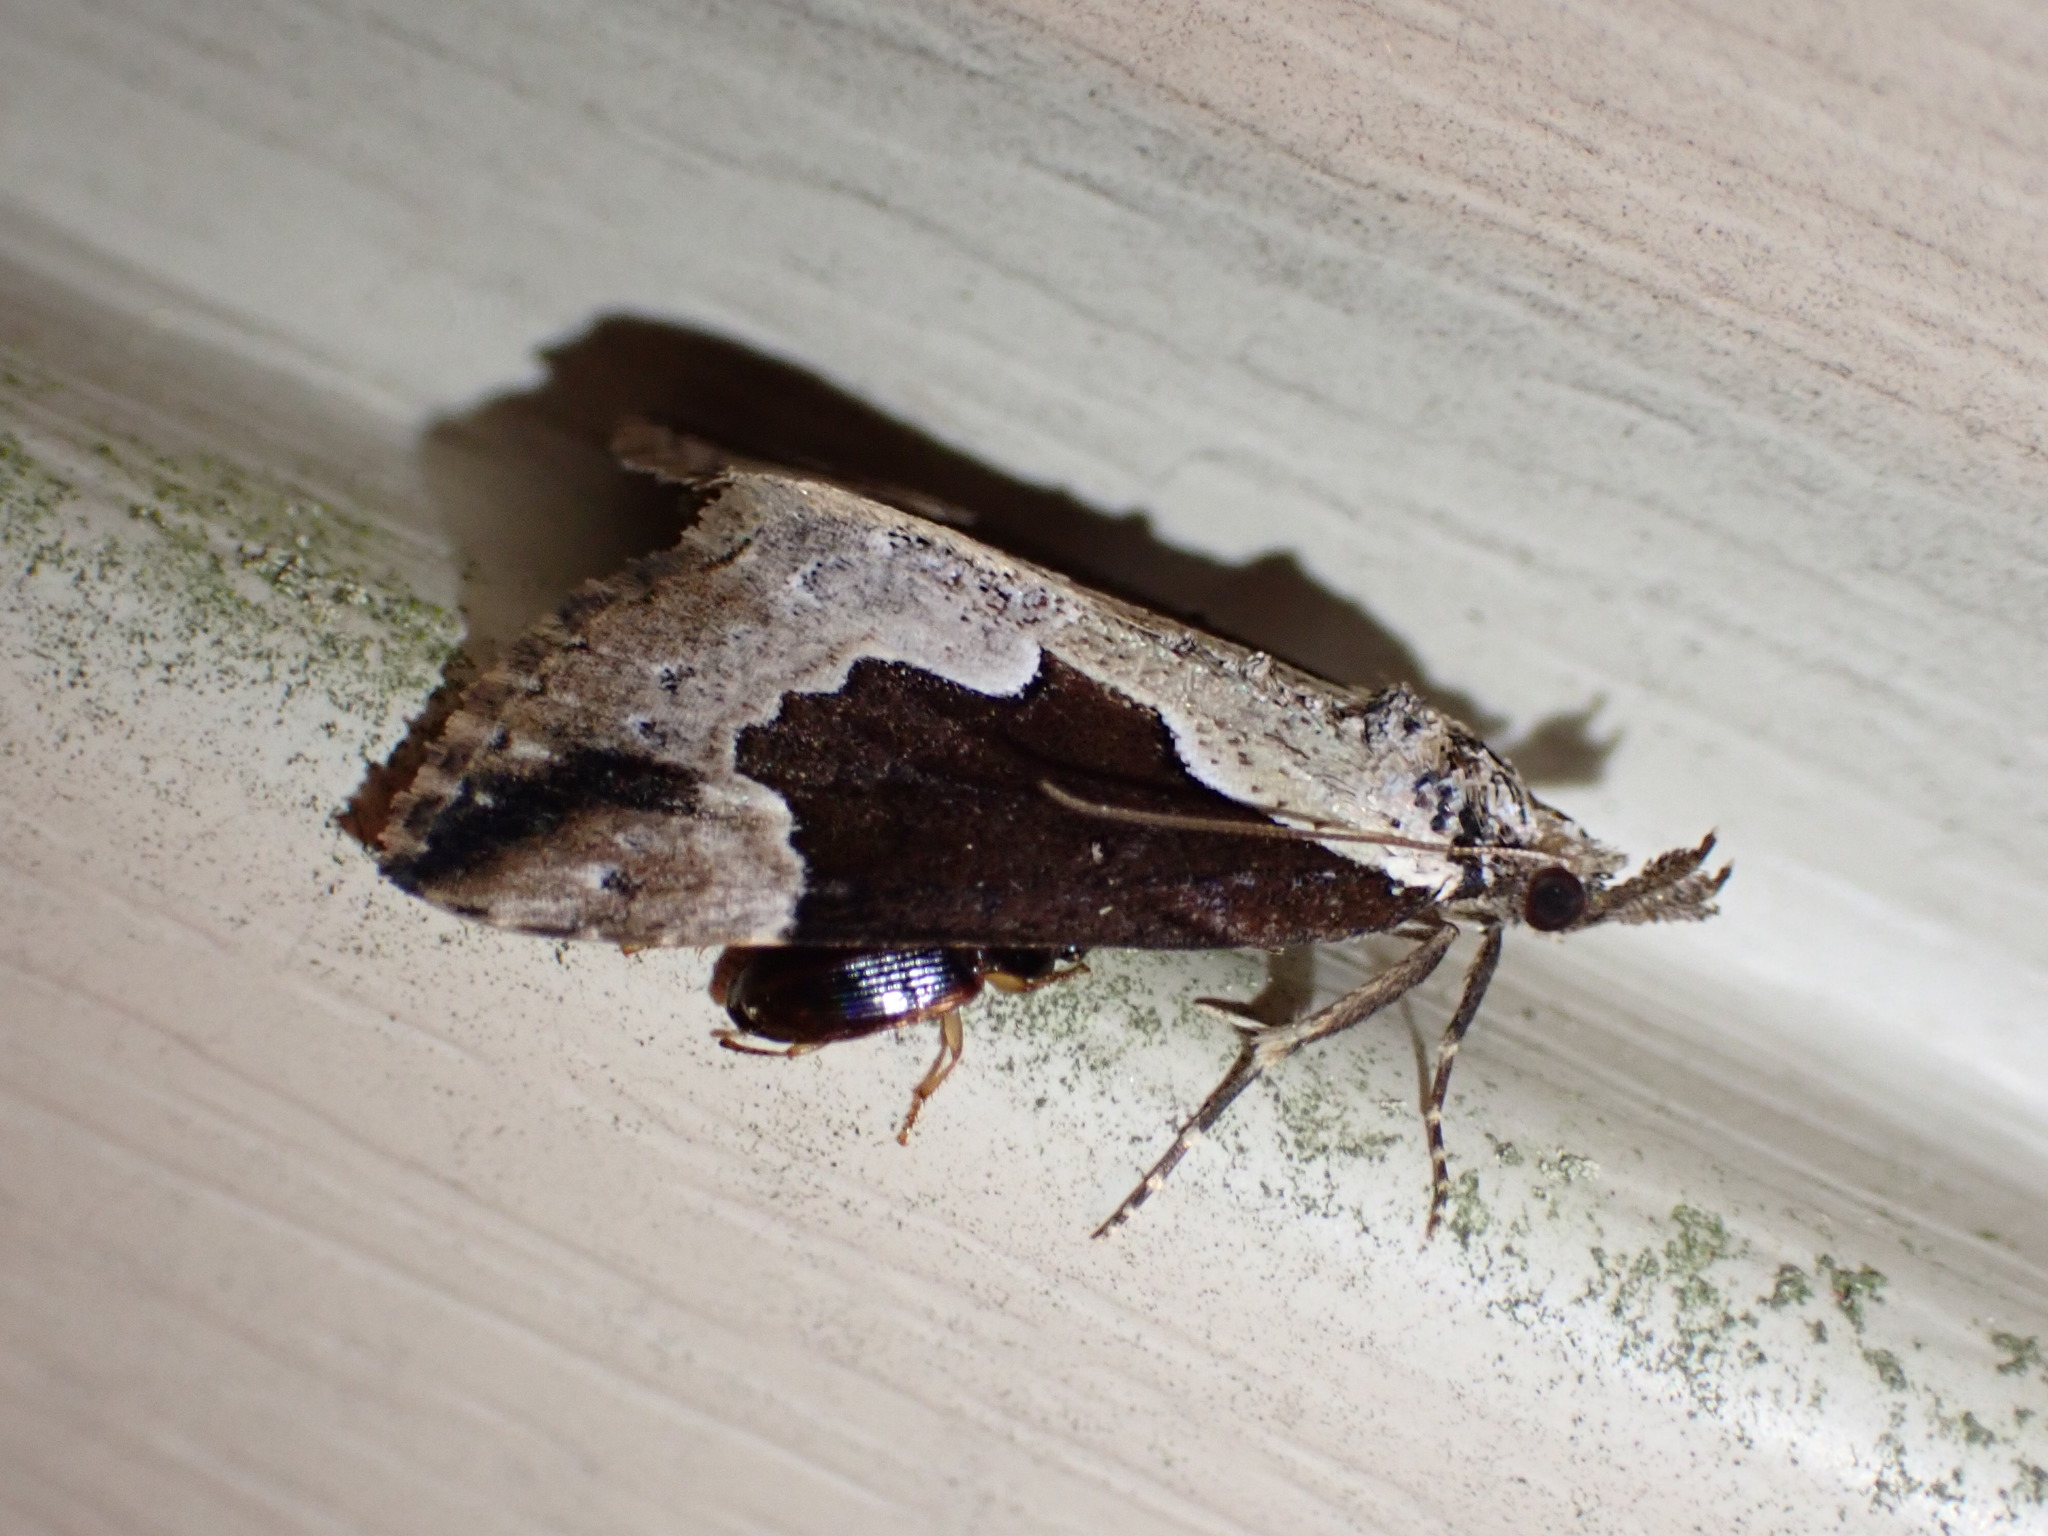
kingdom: Animalia
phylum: Arthropoda
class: Insecta
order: Lepidoptera
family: Erebidae
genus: Hypena
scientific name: Hypena baltimoralis
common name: Baltimore snout
